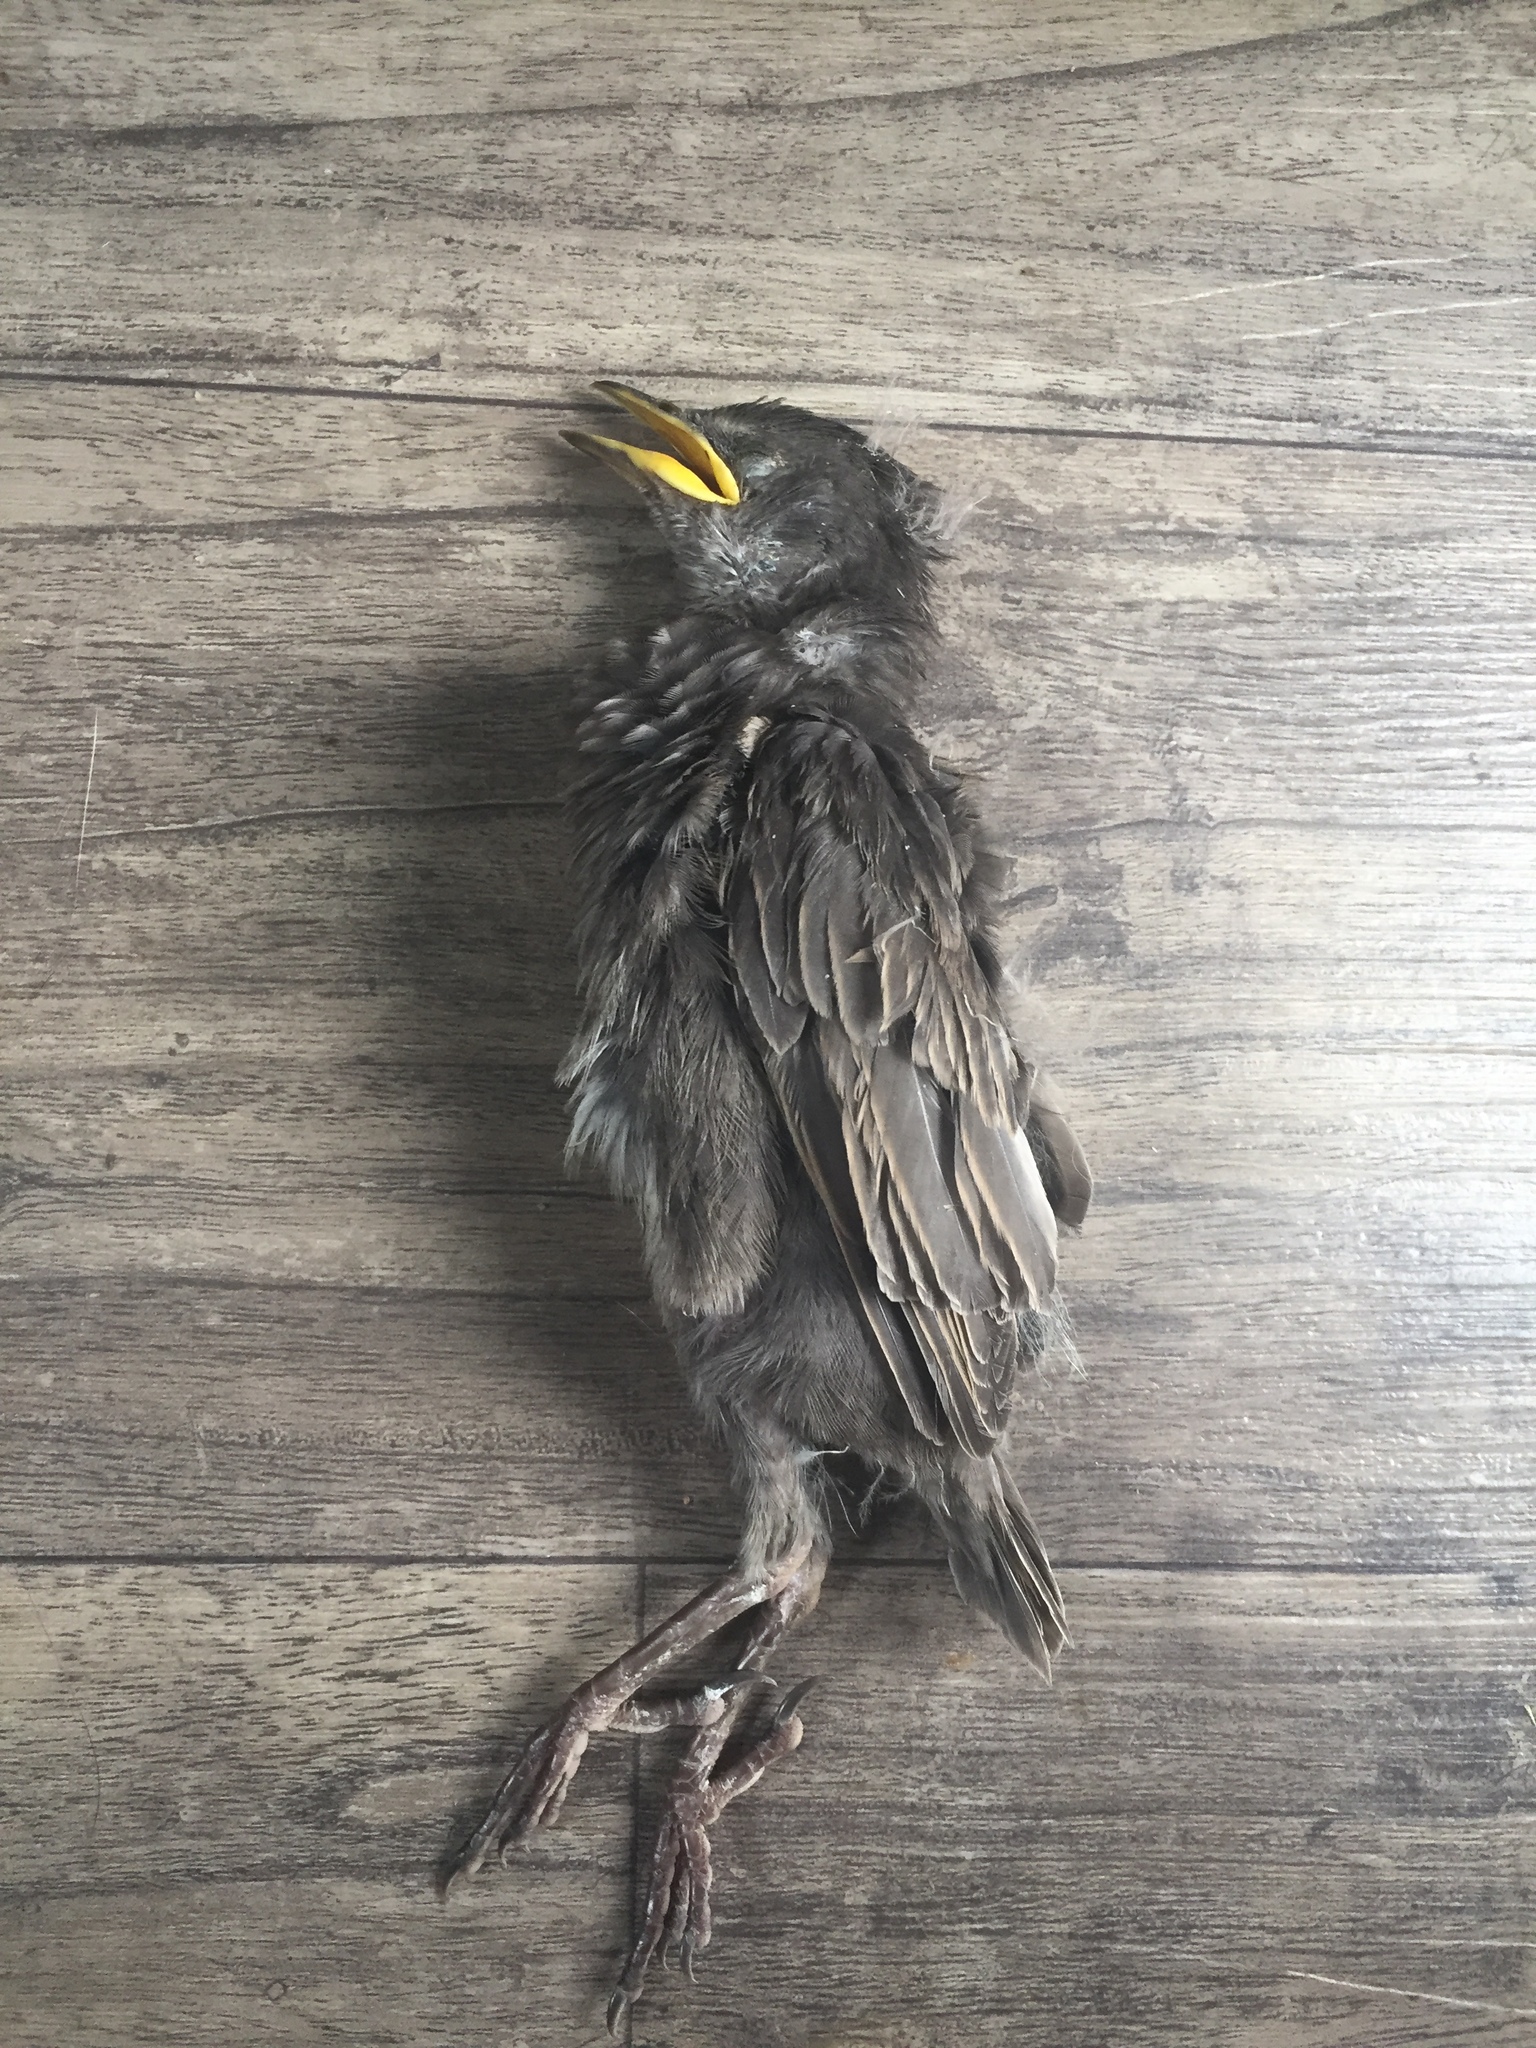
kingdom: Animalia
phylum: Chordata
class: Aves
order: Passeriformes
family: Turdidae
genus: Turdus
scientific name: Turdus merula
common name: Common blackbird
